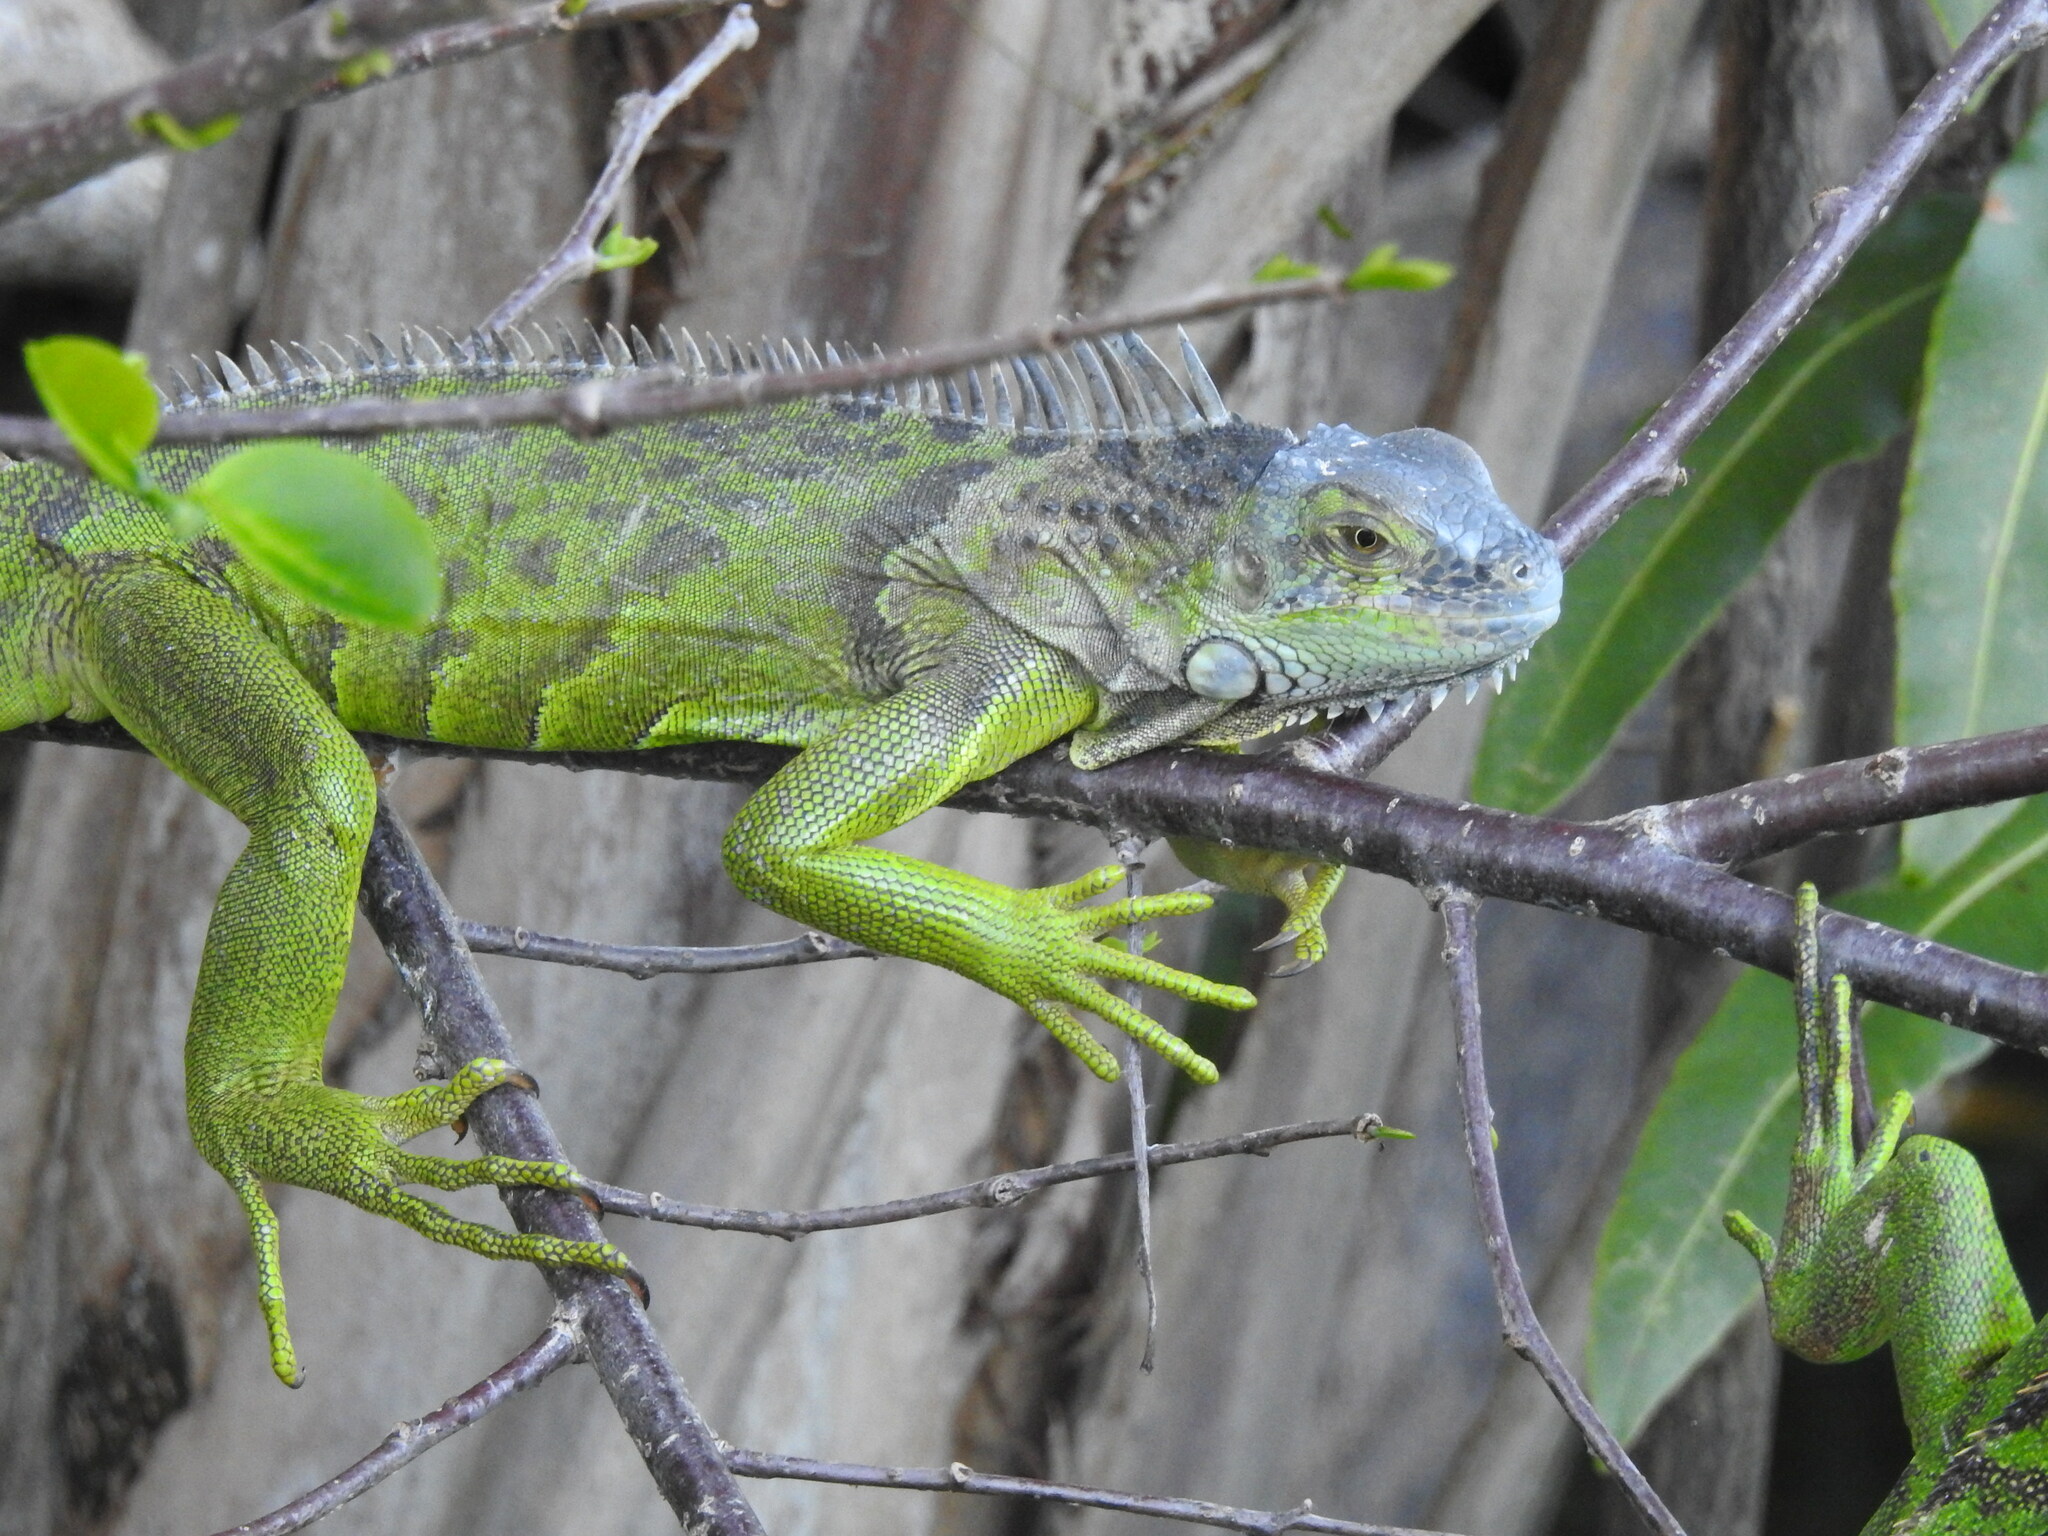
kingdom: Animalia
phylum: Chordata
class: Squamata
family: Iguanidae
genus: Iguana
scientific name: Iguana iguana
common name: Green iguana
